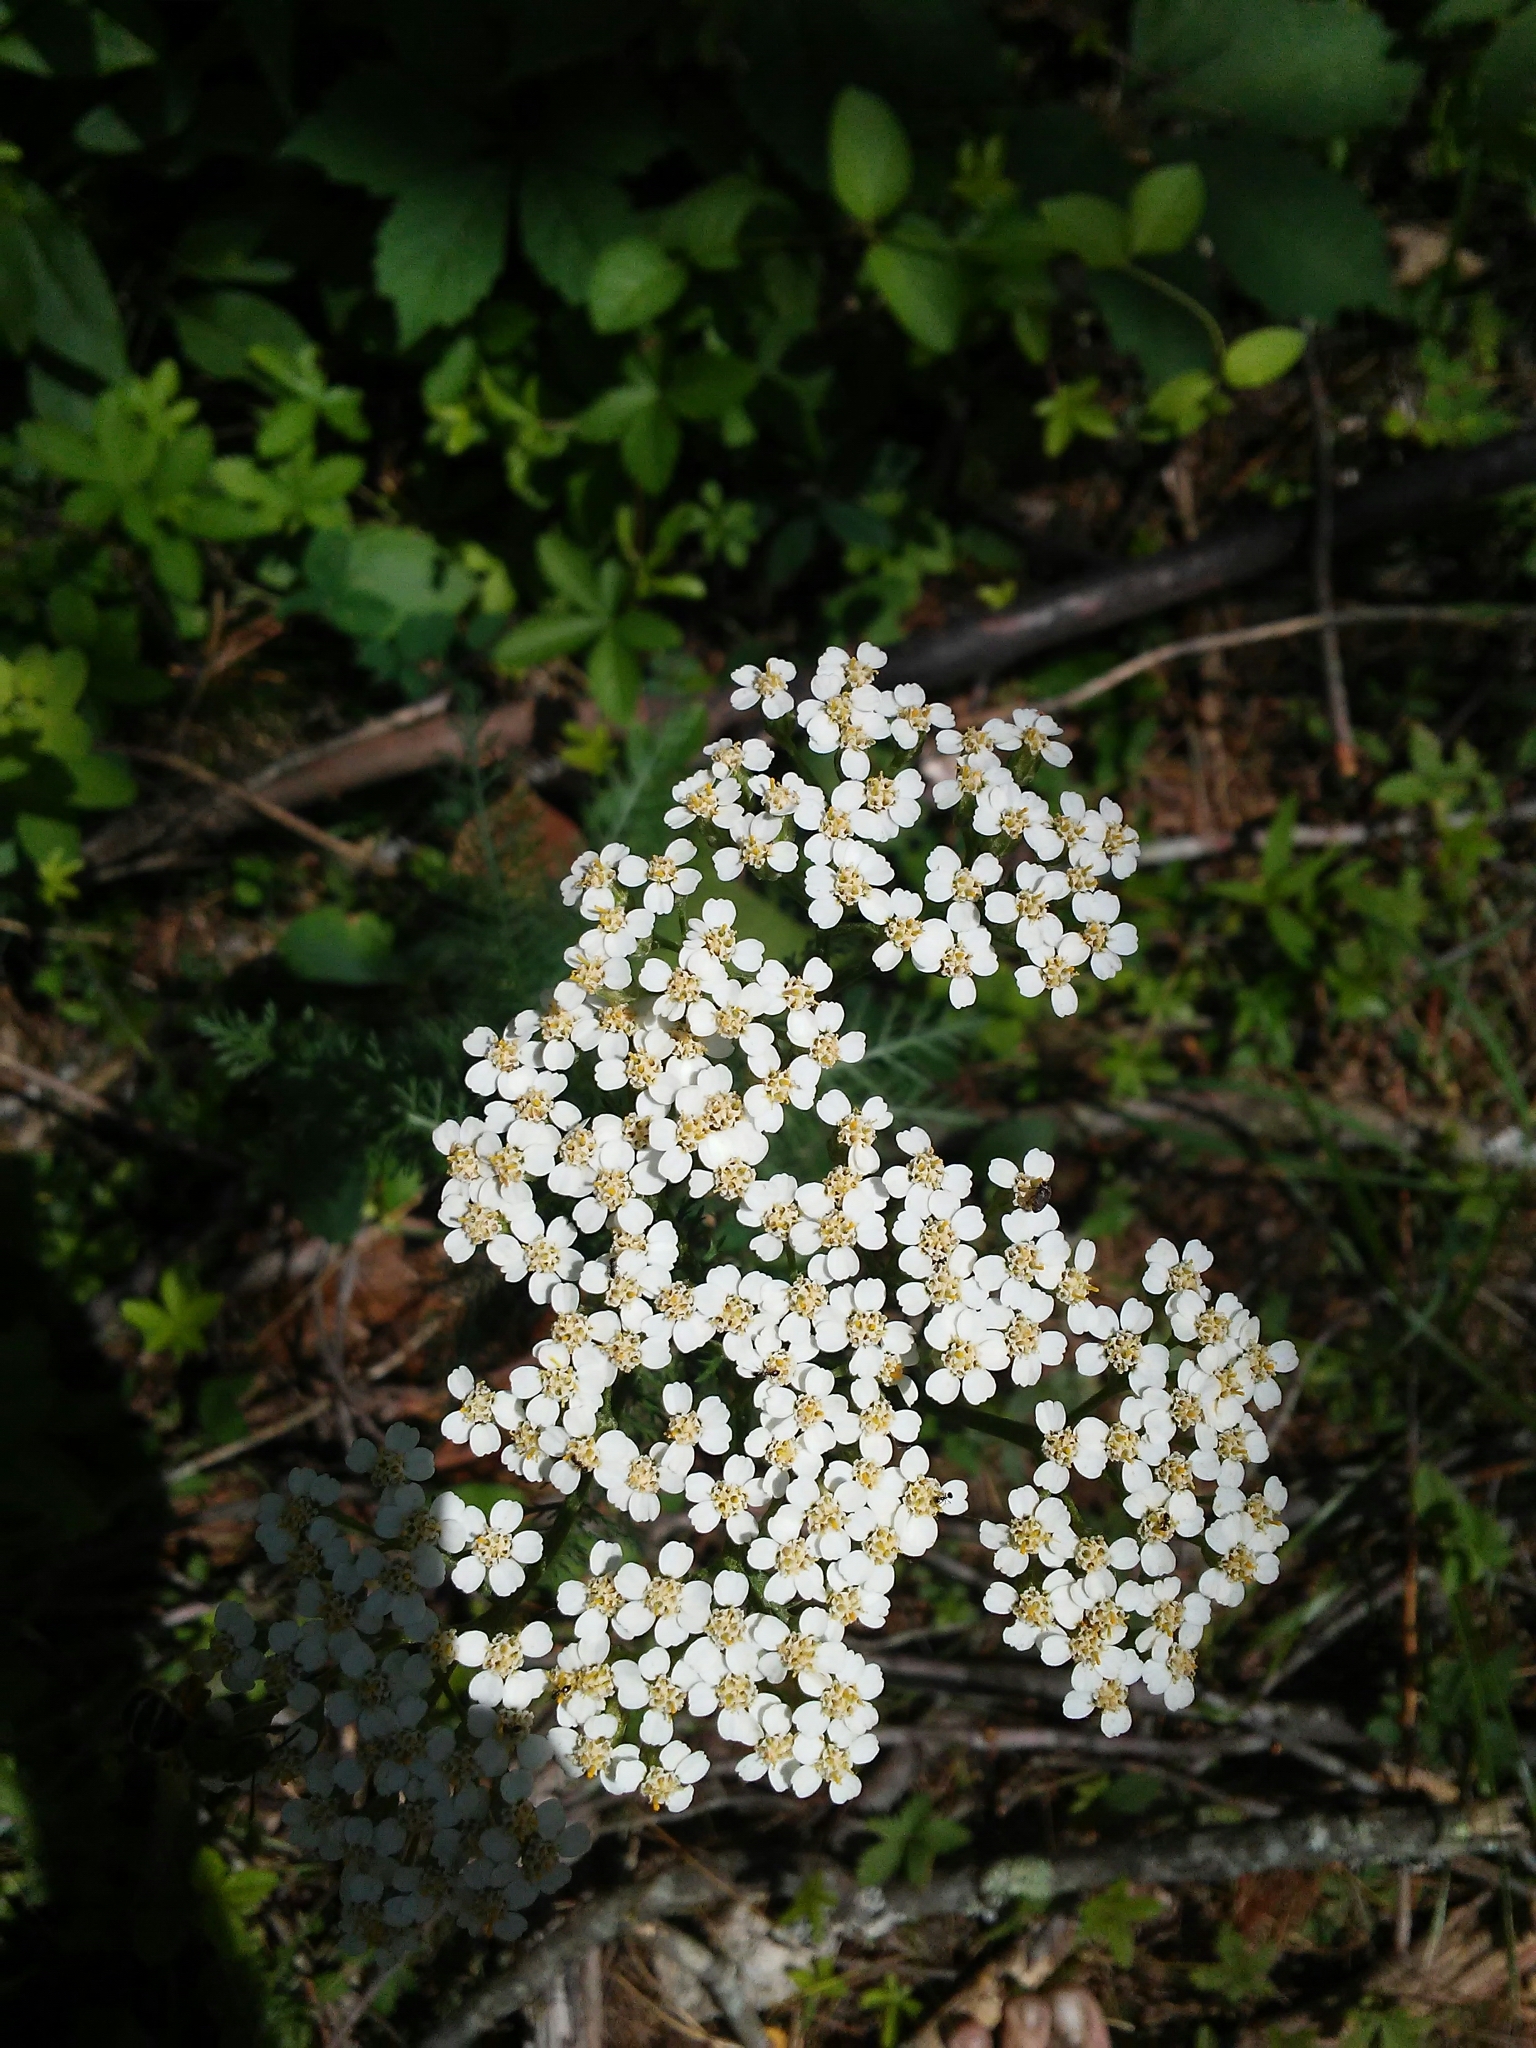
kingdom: Plantae
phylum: Tracheophyta
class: Magnoliopsida
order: Asterales
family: Asteraceae
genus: Achillea
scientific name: Achillea millefolium
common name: Yarrow
